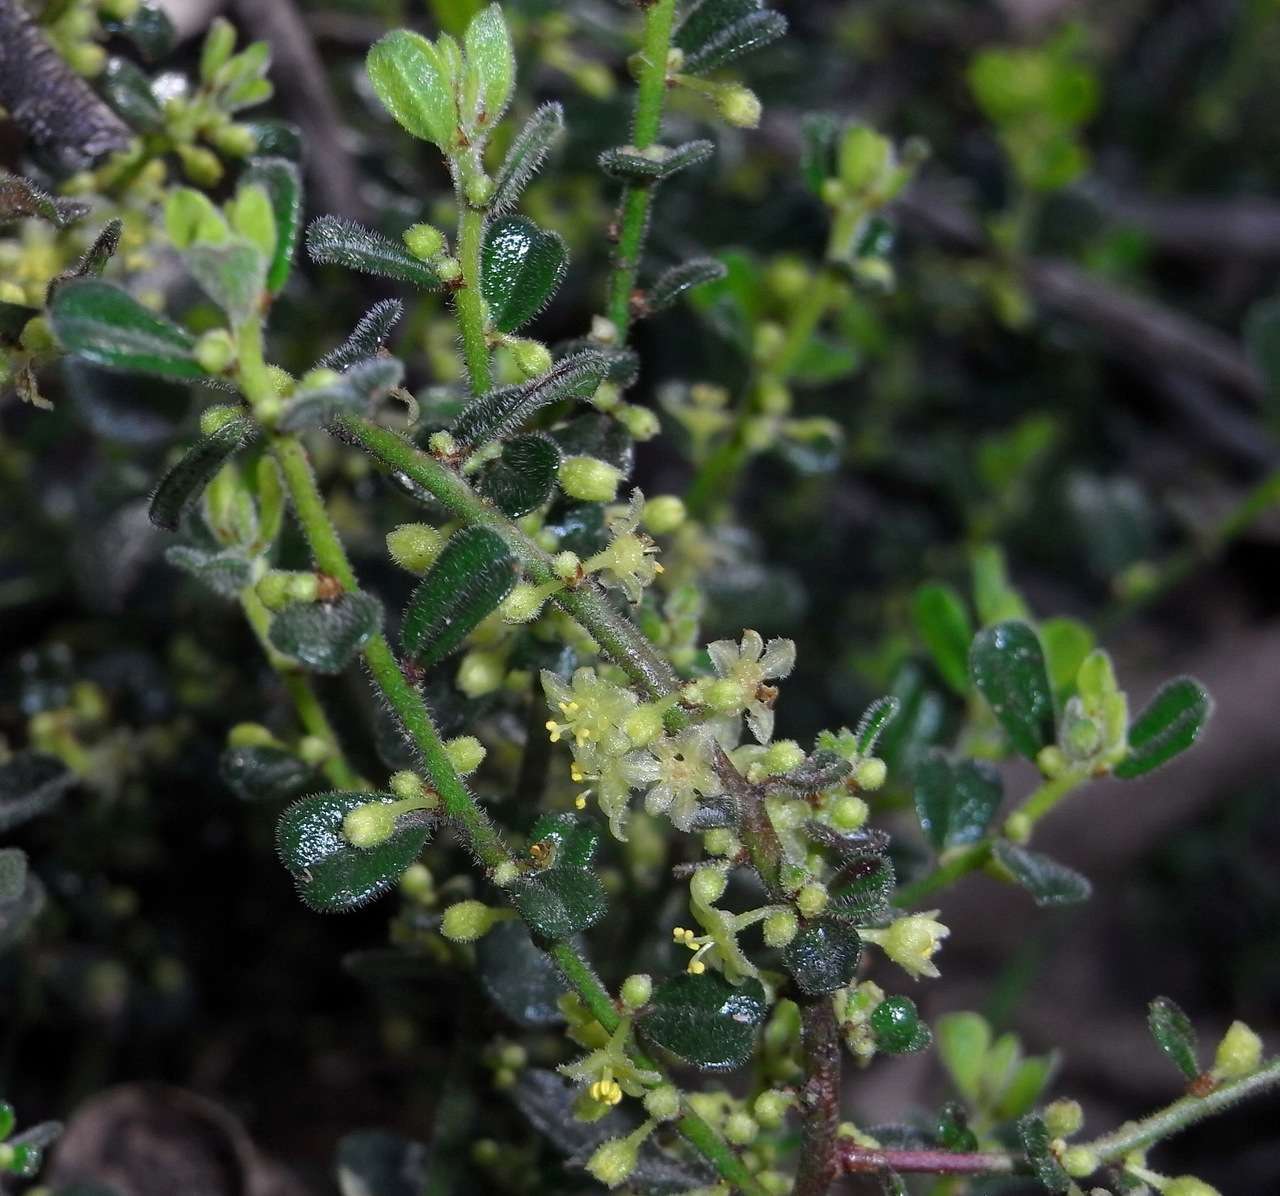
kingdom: Plantae
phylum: Tracheophyta
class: Magnoliopsida
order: Malpighiales
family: Phyllanthaceae
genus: Phyllanthus
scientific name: Phyllanthus hirtellus
